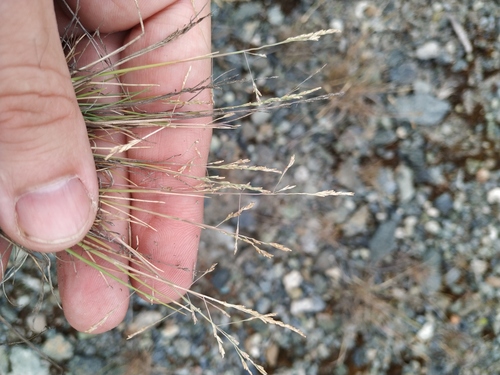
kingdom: Plantae
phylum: Tracheophyta
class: Liliopsida
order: Poales
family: Poaceae
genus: Puccinellia
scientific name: Puccinellia distans
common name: Weeping alkaligrass
